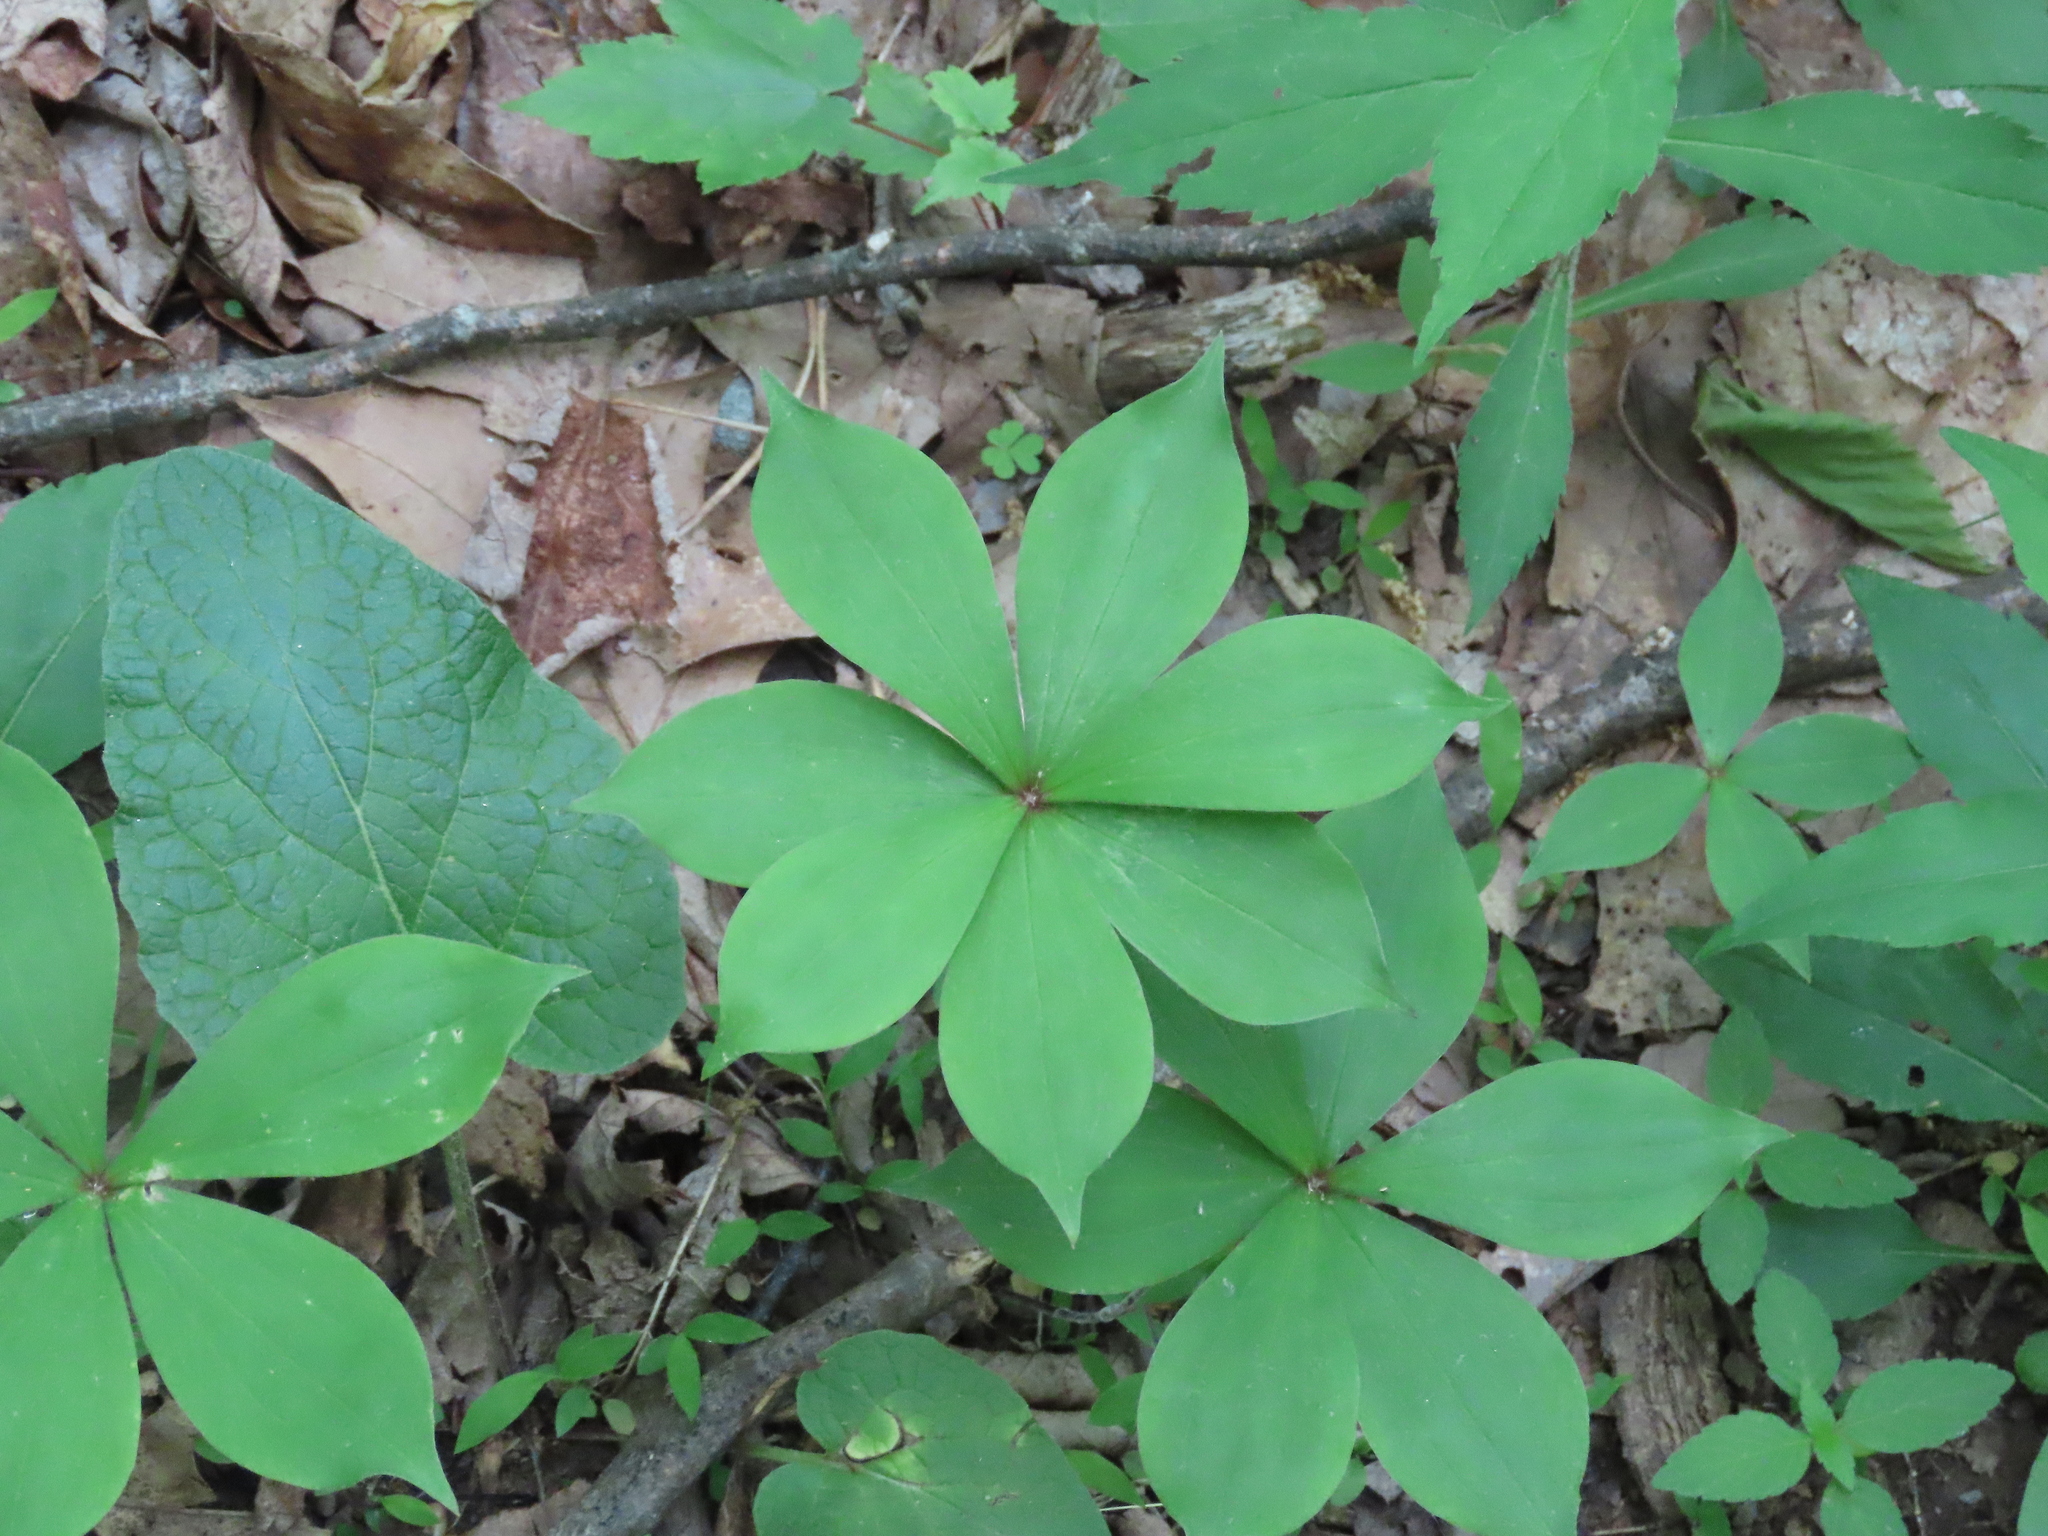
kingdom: Plantae
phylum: Tracheophyta
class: Liliopsida
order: Liliales
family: Liliaceae
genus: Medeola
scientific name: Medeola virginiana
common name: Indian cucumber-root
